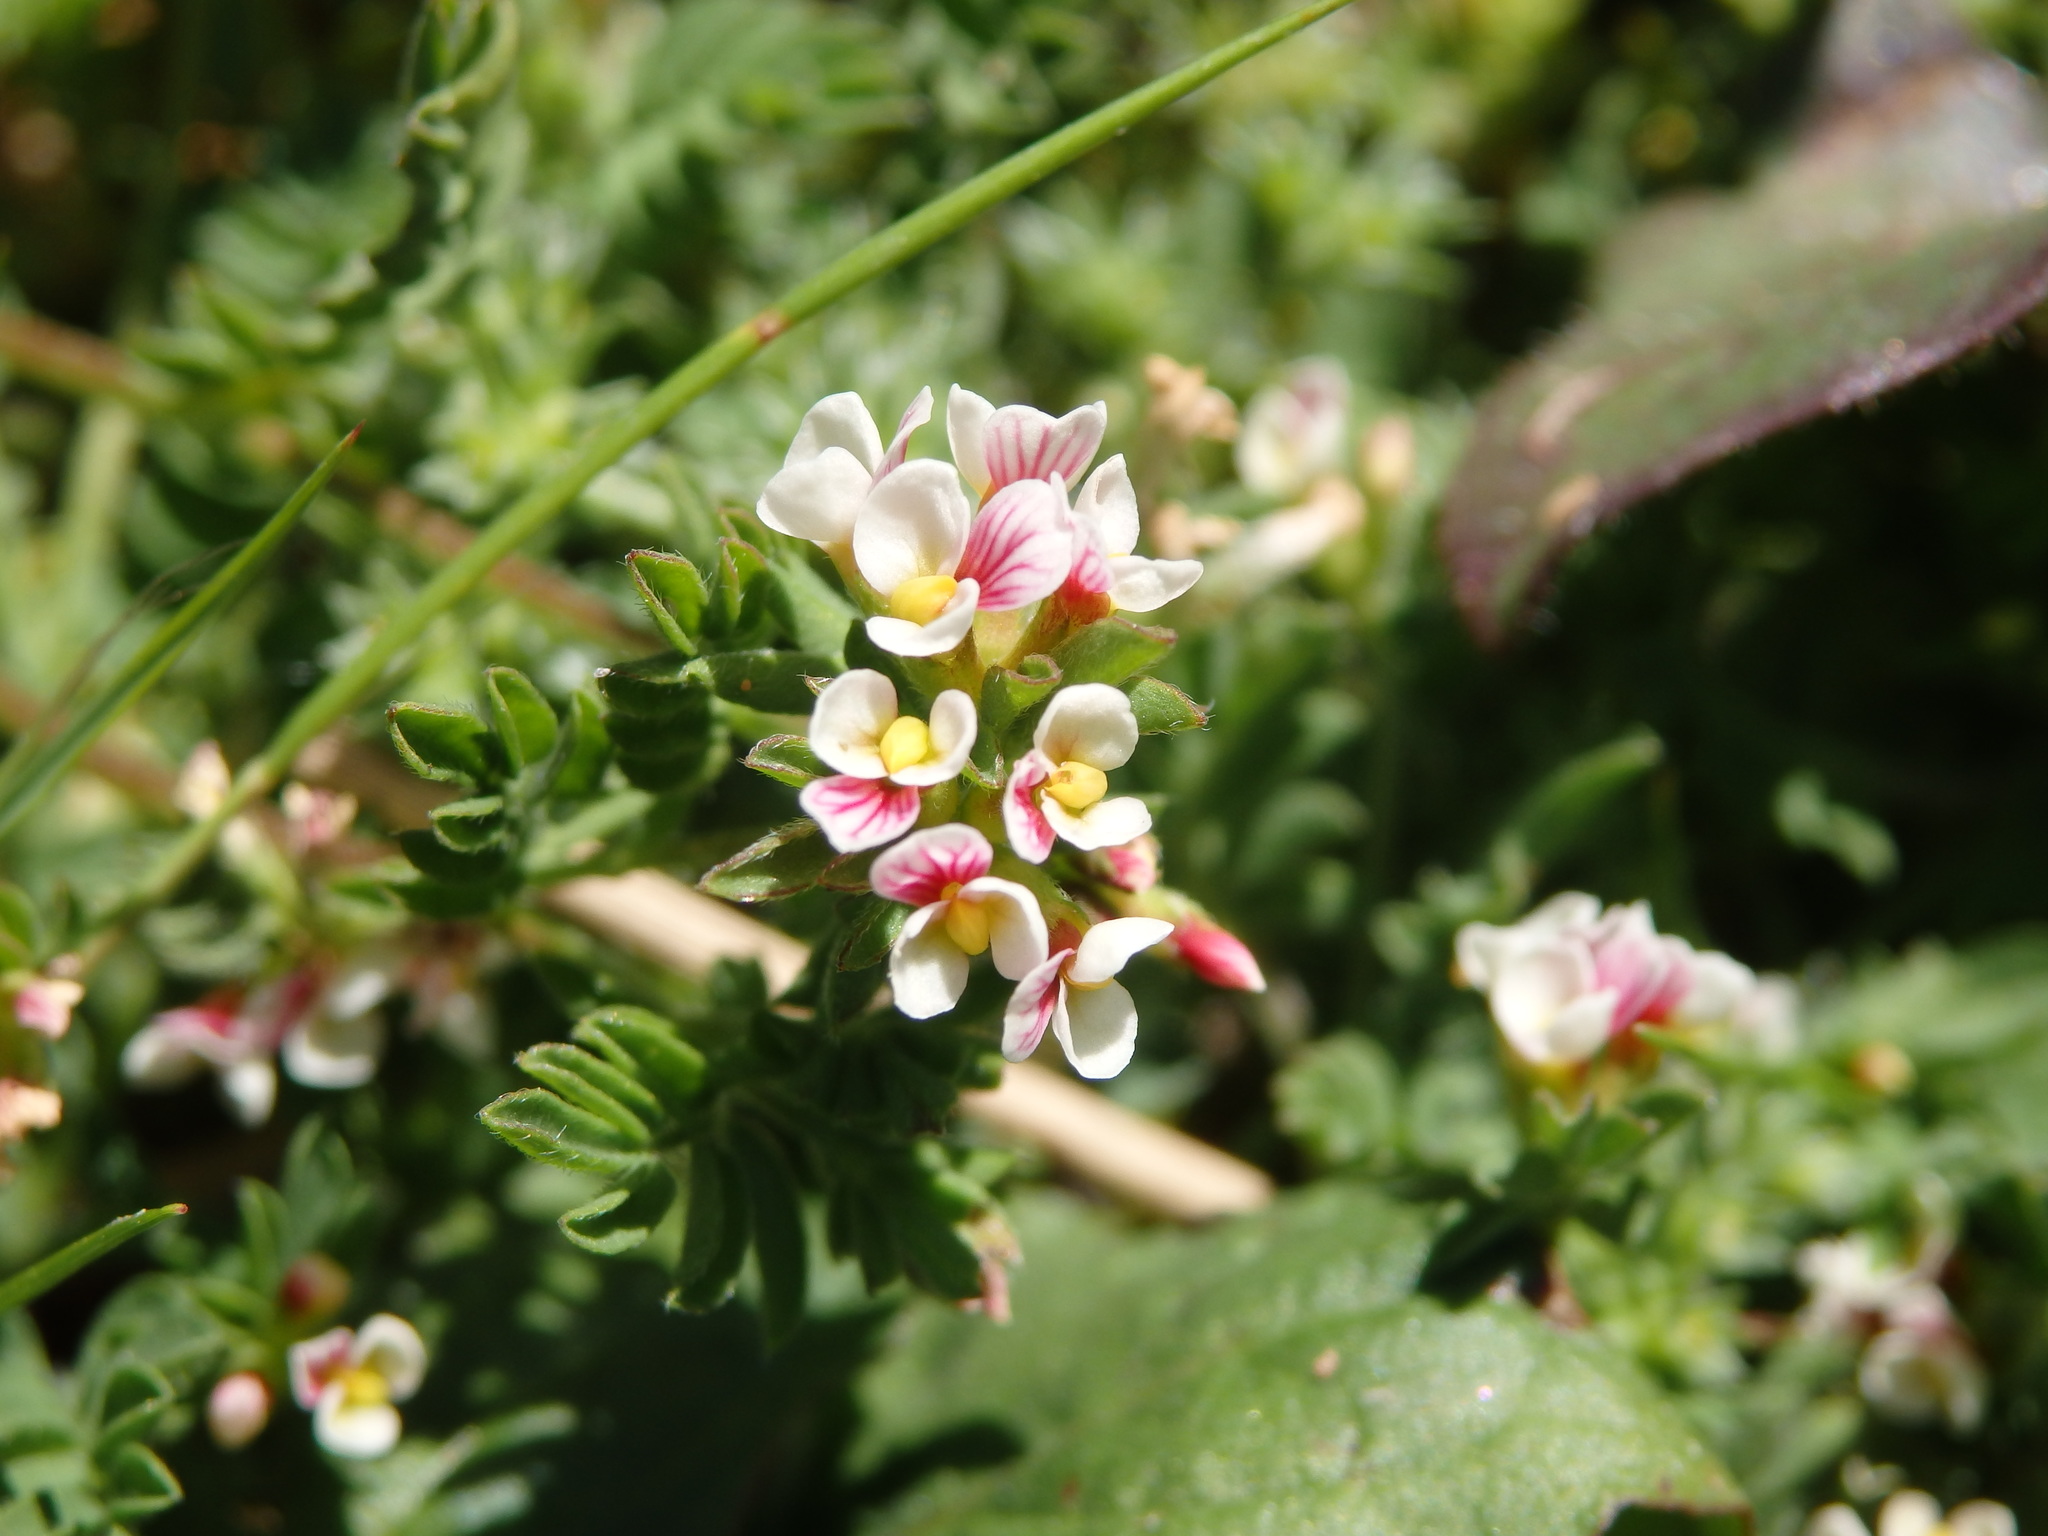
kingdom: Plantae
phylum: Tracheophyta
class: Magnoliopsida
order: Fabales
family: Fabaceae
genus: Ornithopus
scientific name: Ornithopus perpusillus
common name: Bird's-foot
